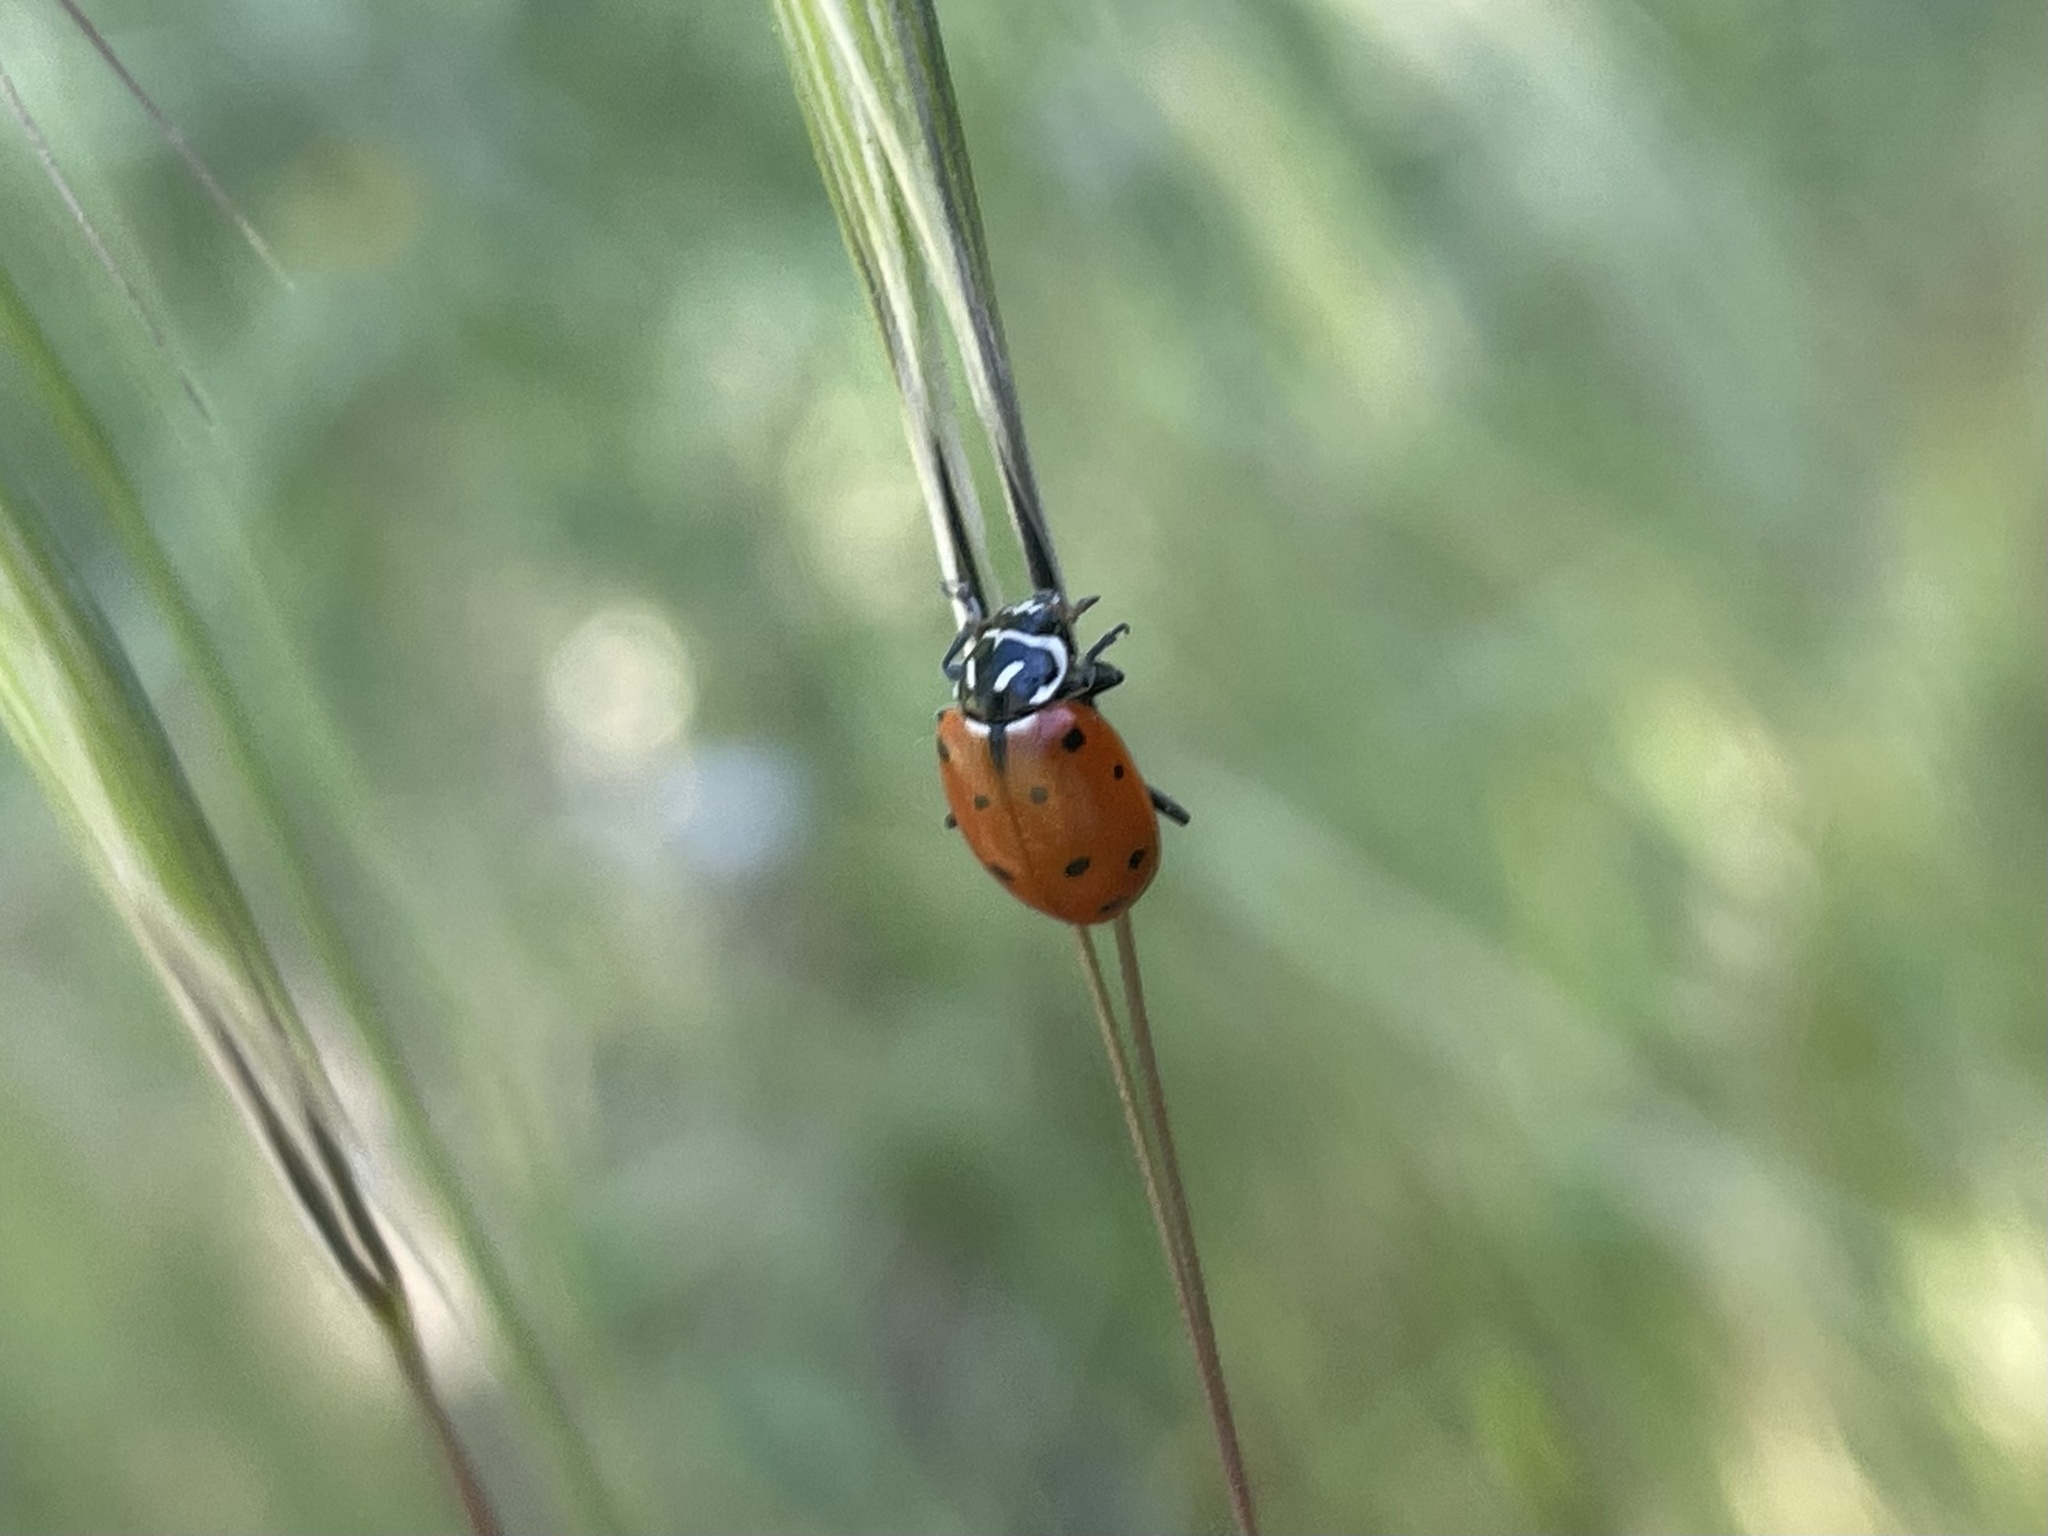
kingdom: Animalia
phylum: Arthropoda
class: Insecta
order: Coleoptera
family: Coccinellidae
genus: Hippodamia
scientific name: Hippodamia convergens
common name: Convergent lady beetle
